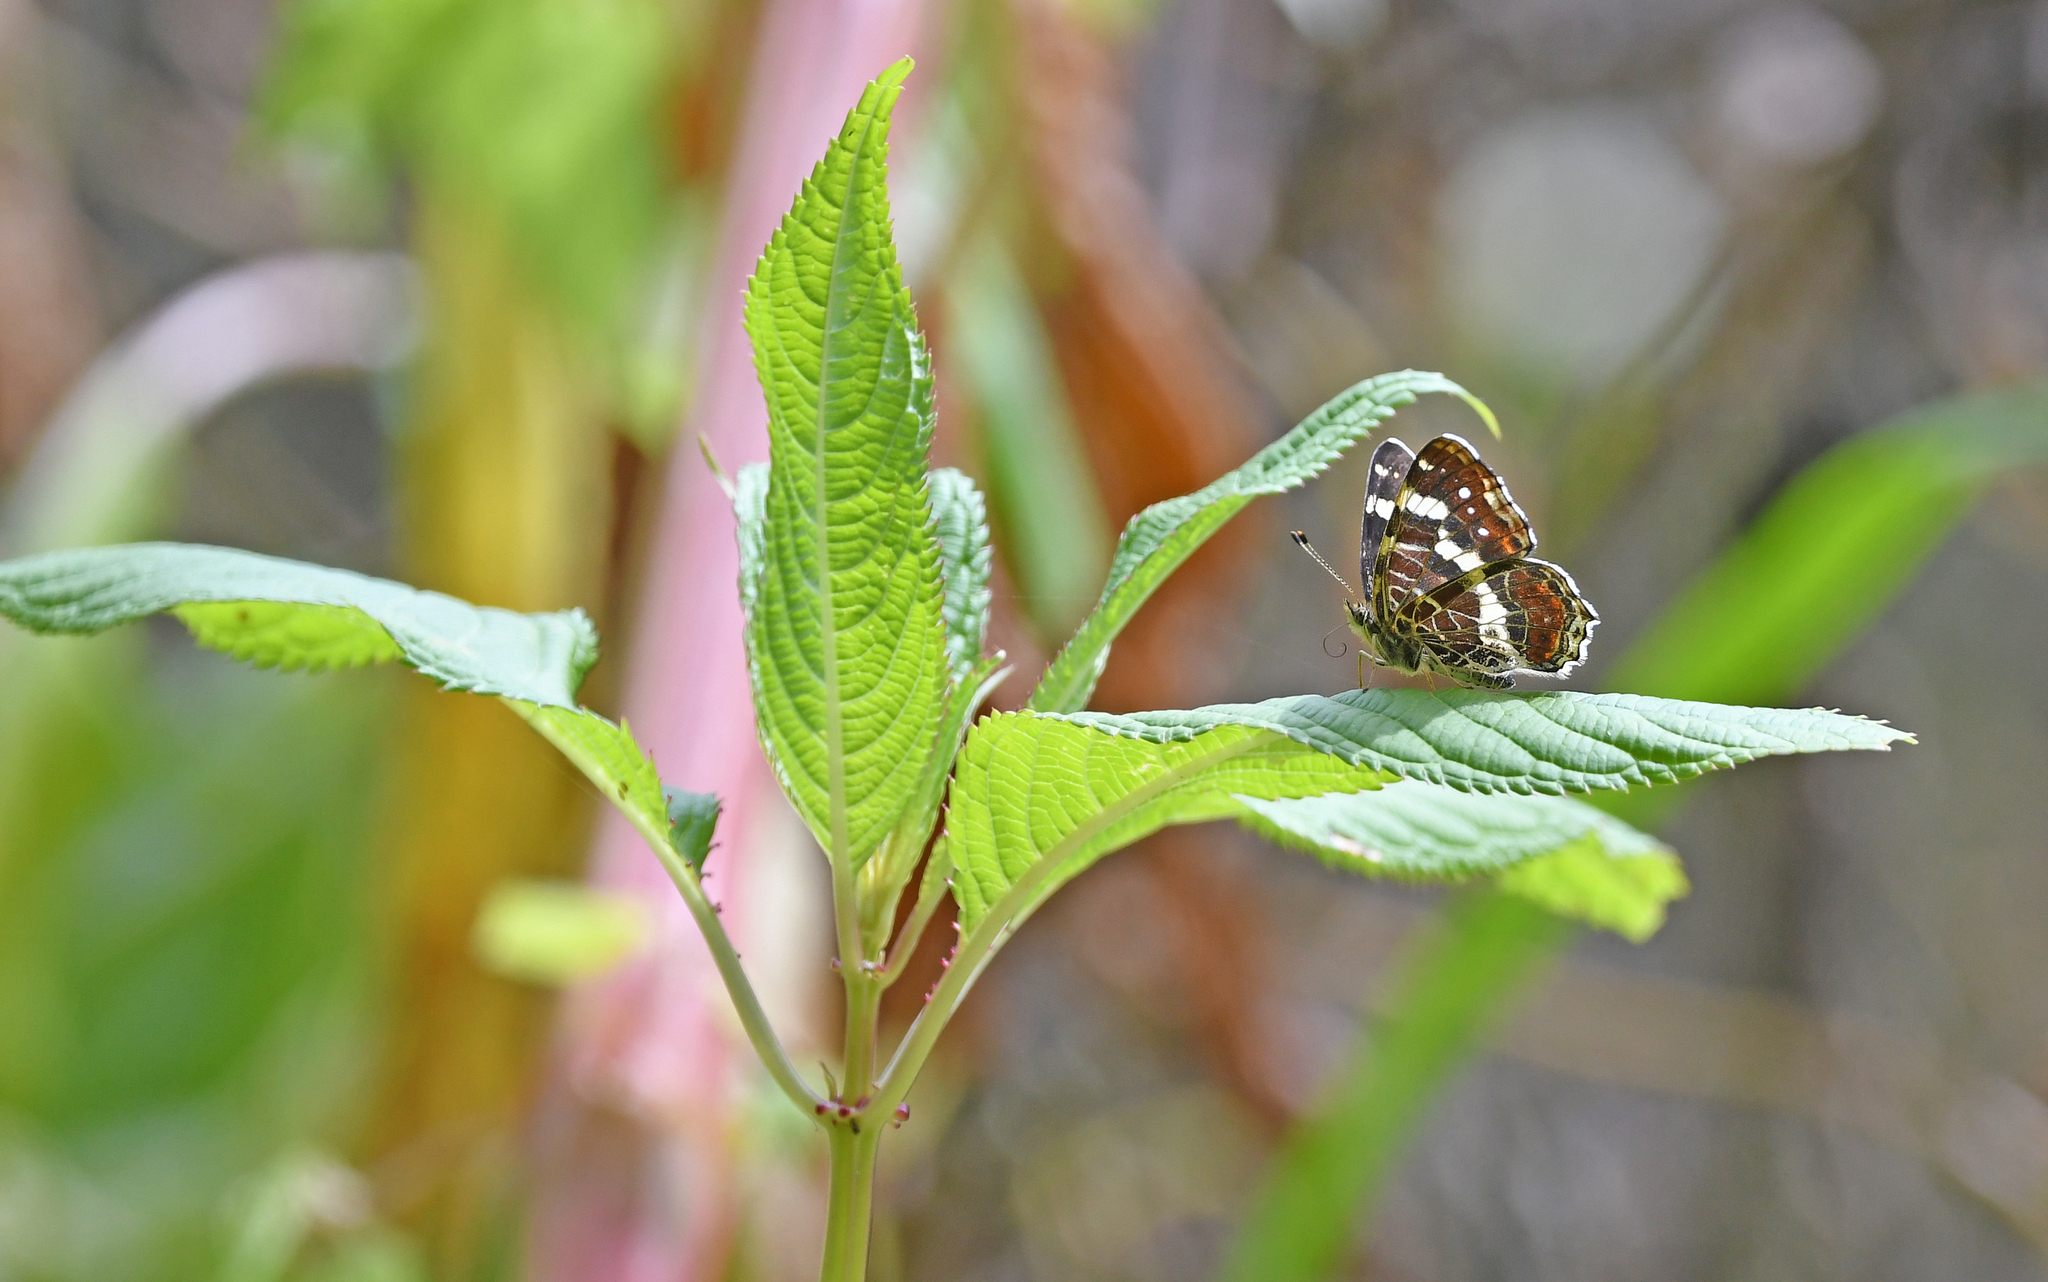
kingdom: Animalia
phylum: Arthropoda
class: Insecta
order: Lepidoptera
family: Nymphalidae
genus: Araschnia
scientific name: Araschnia levana
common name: Map butterfly
